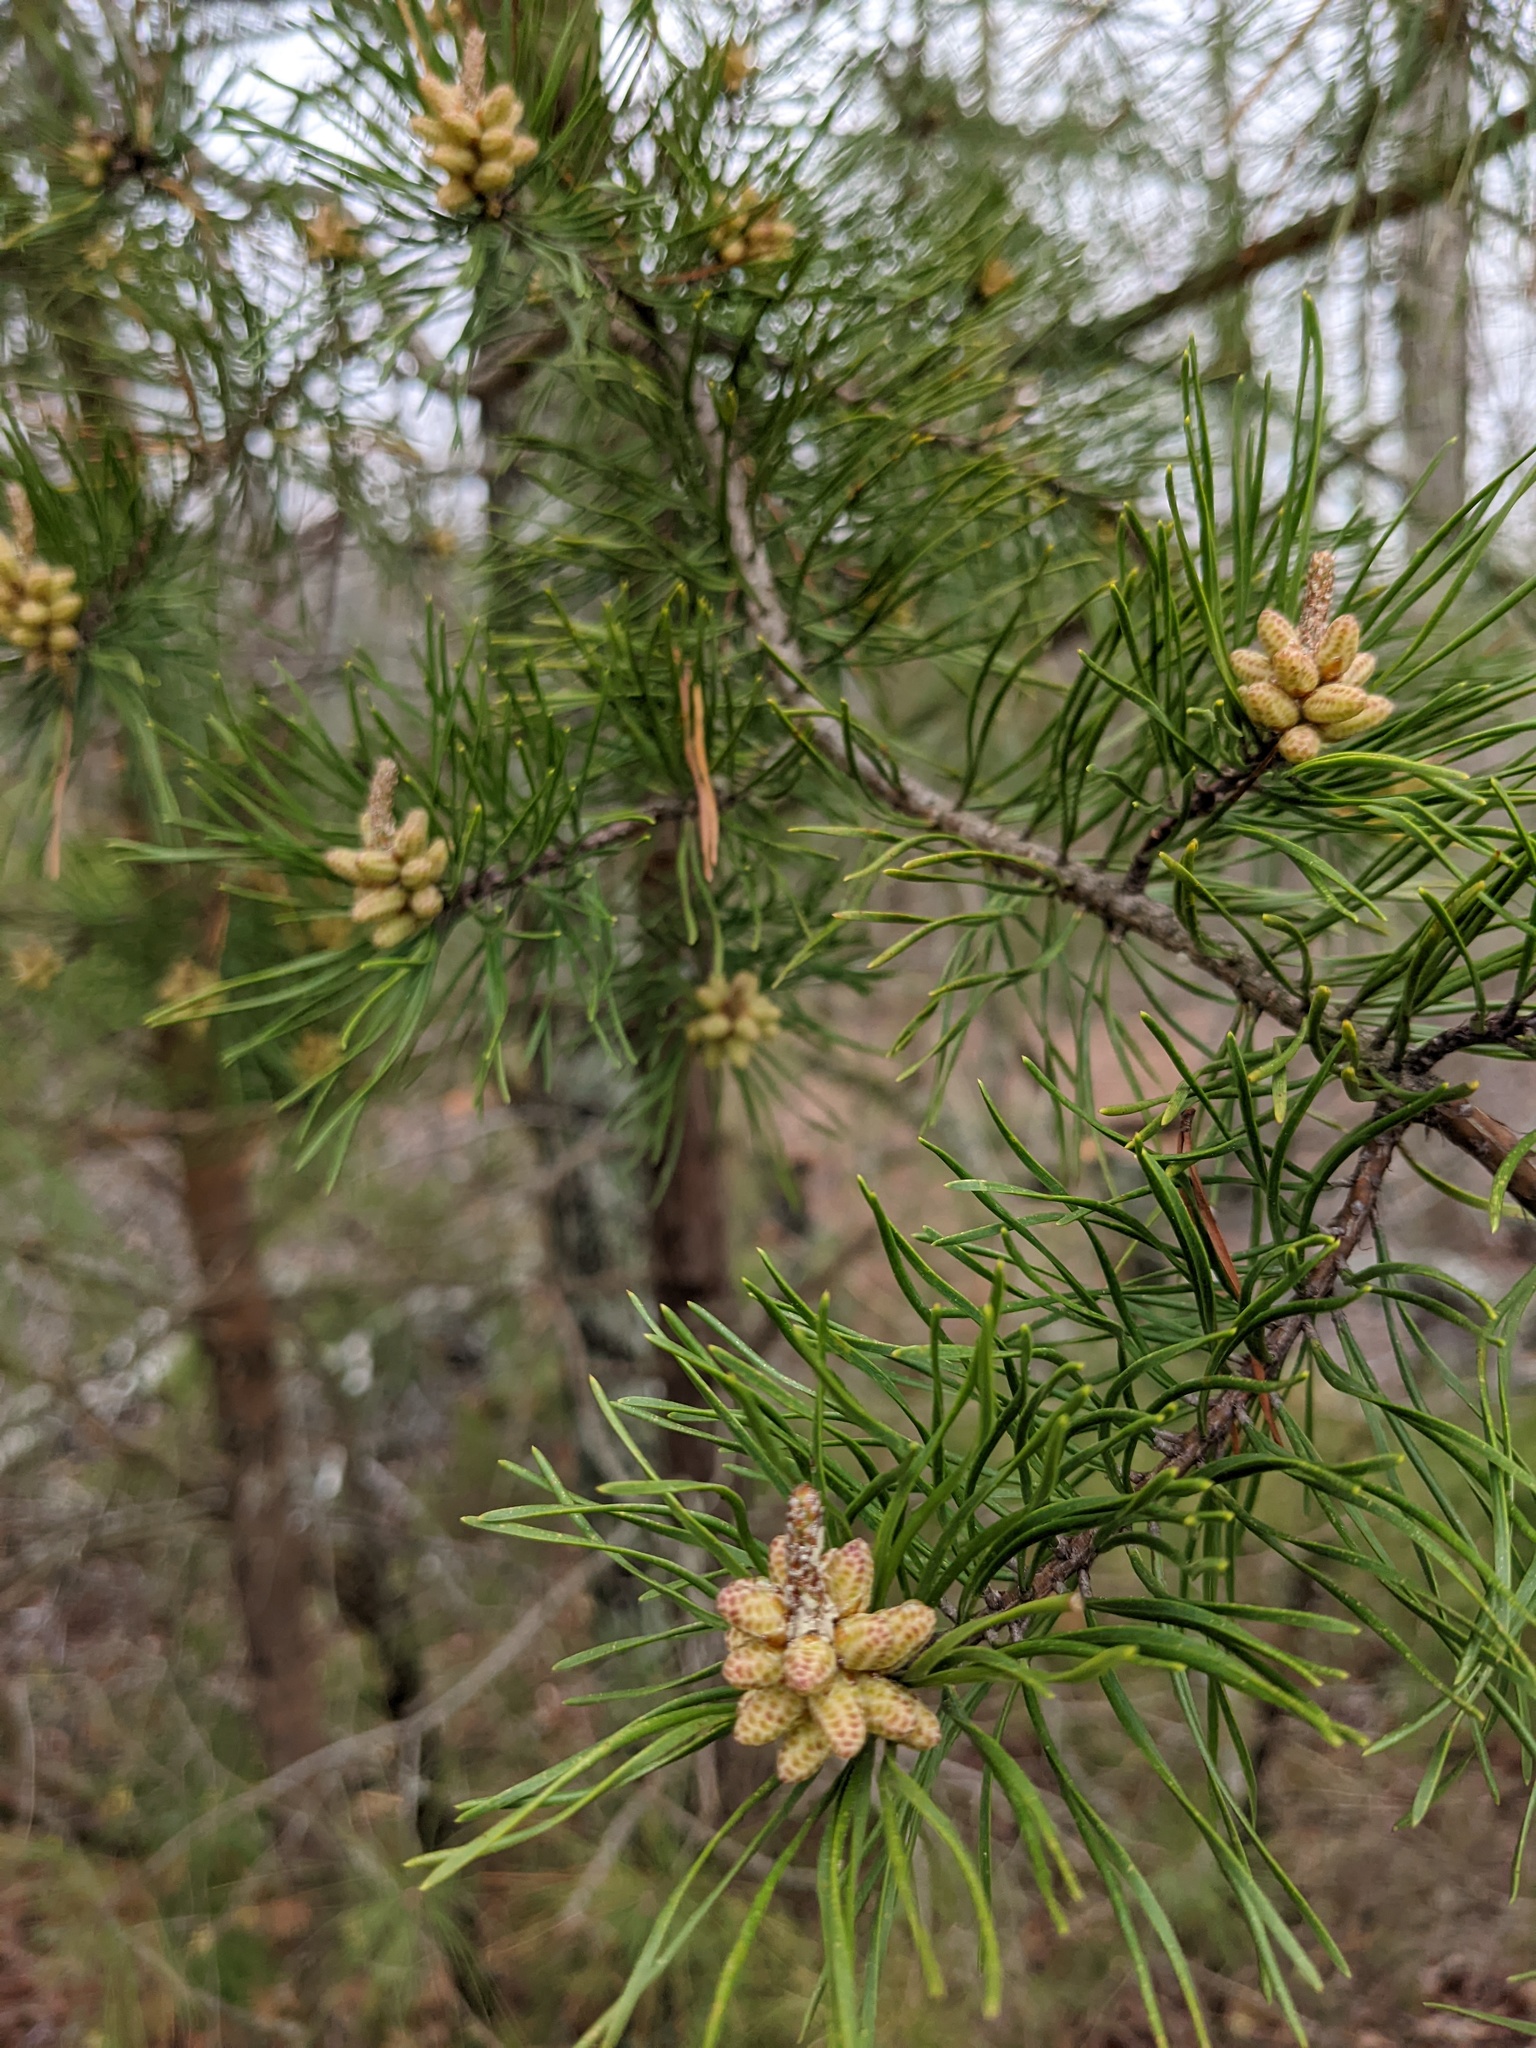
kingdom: Plantae
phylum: Tracheophyta
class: Pinopsida
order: Pinales
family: Pinaceae
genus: Pinus
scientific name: Pinus virginiana
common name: Scrub pine
